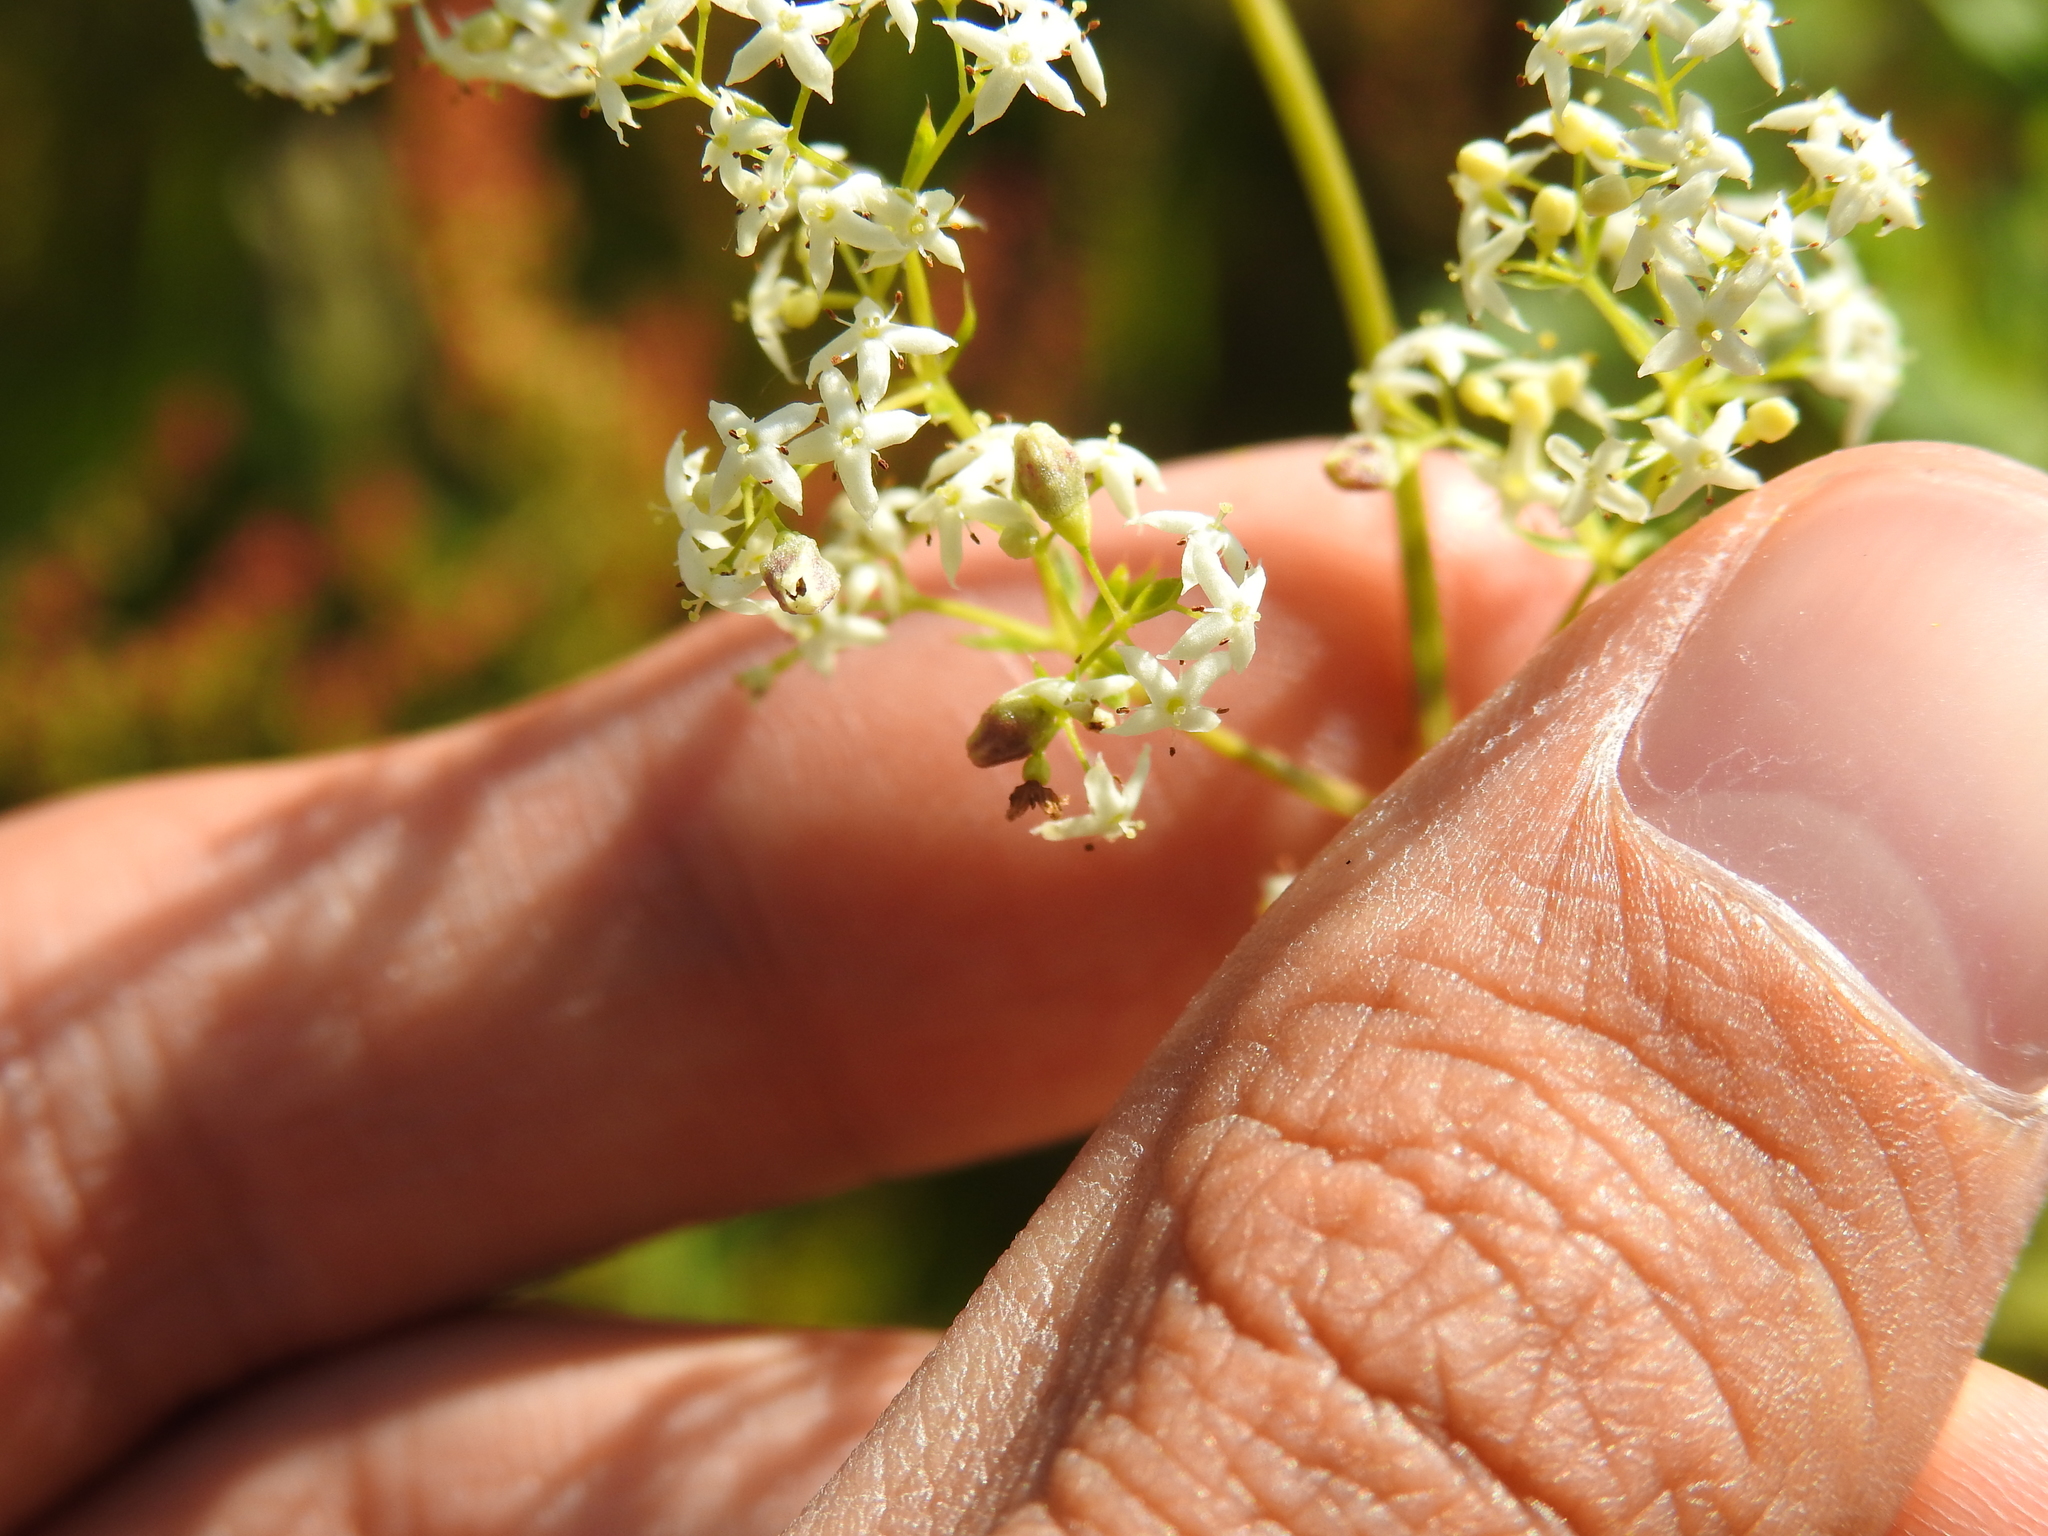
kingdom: Animalia
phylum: Arthropoda
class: Insecta
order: Diptera
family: Cecidomyiidae
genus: Schizomyia
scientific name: Schizomyia galiorum
